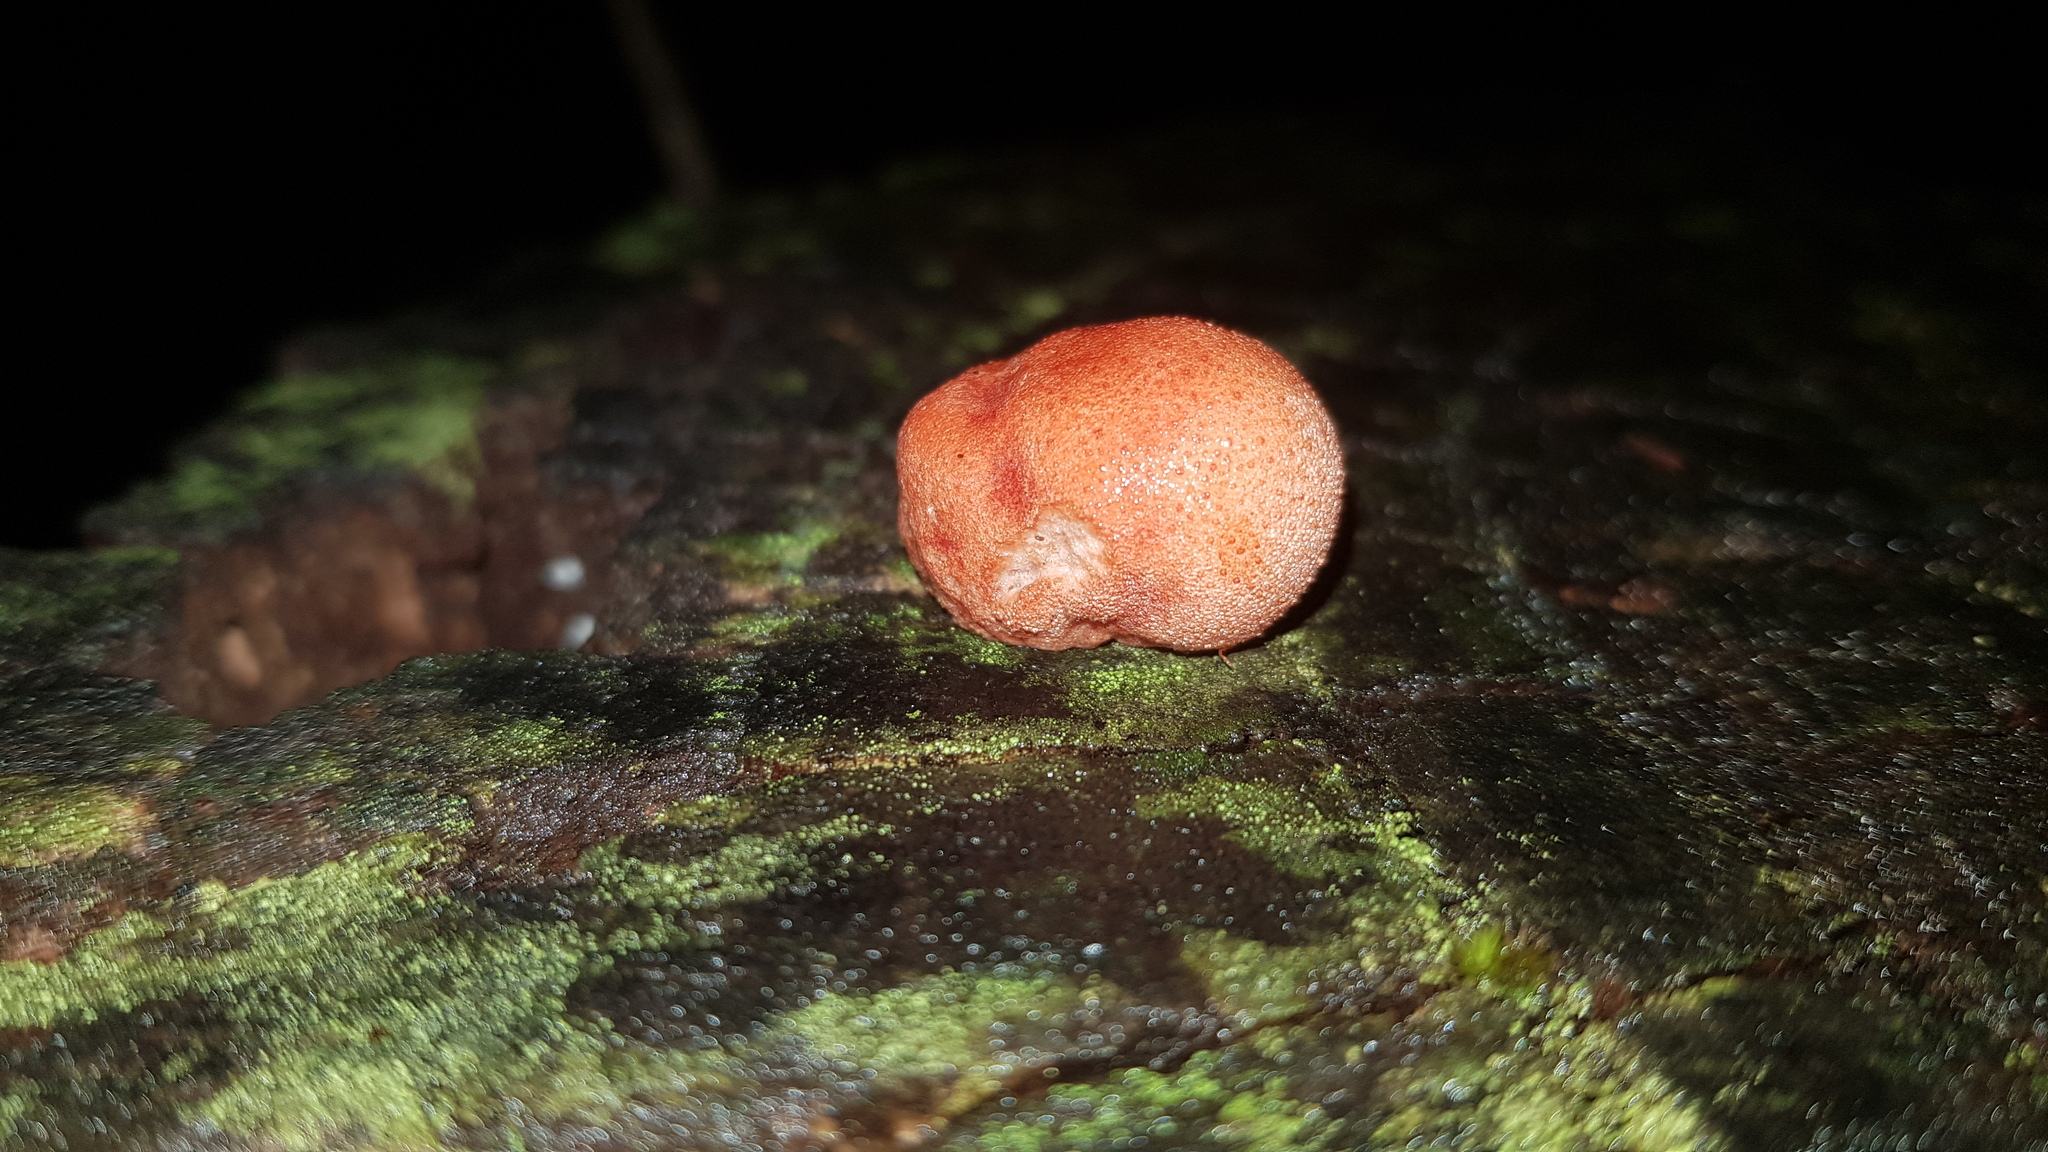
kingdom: Fungi
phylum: Basidiomycota
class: Agaricomycetes
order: Agaricales
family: Fistulinaceae
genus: Fistulina
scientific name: Fistulina spiculifera
